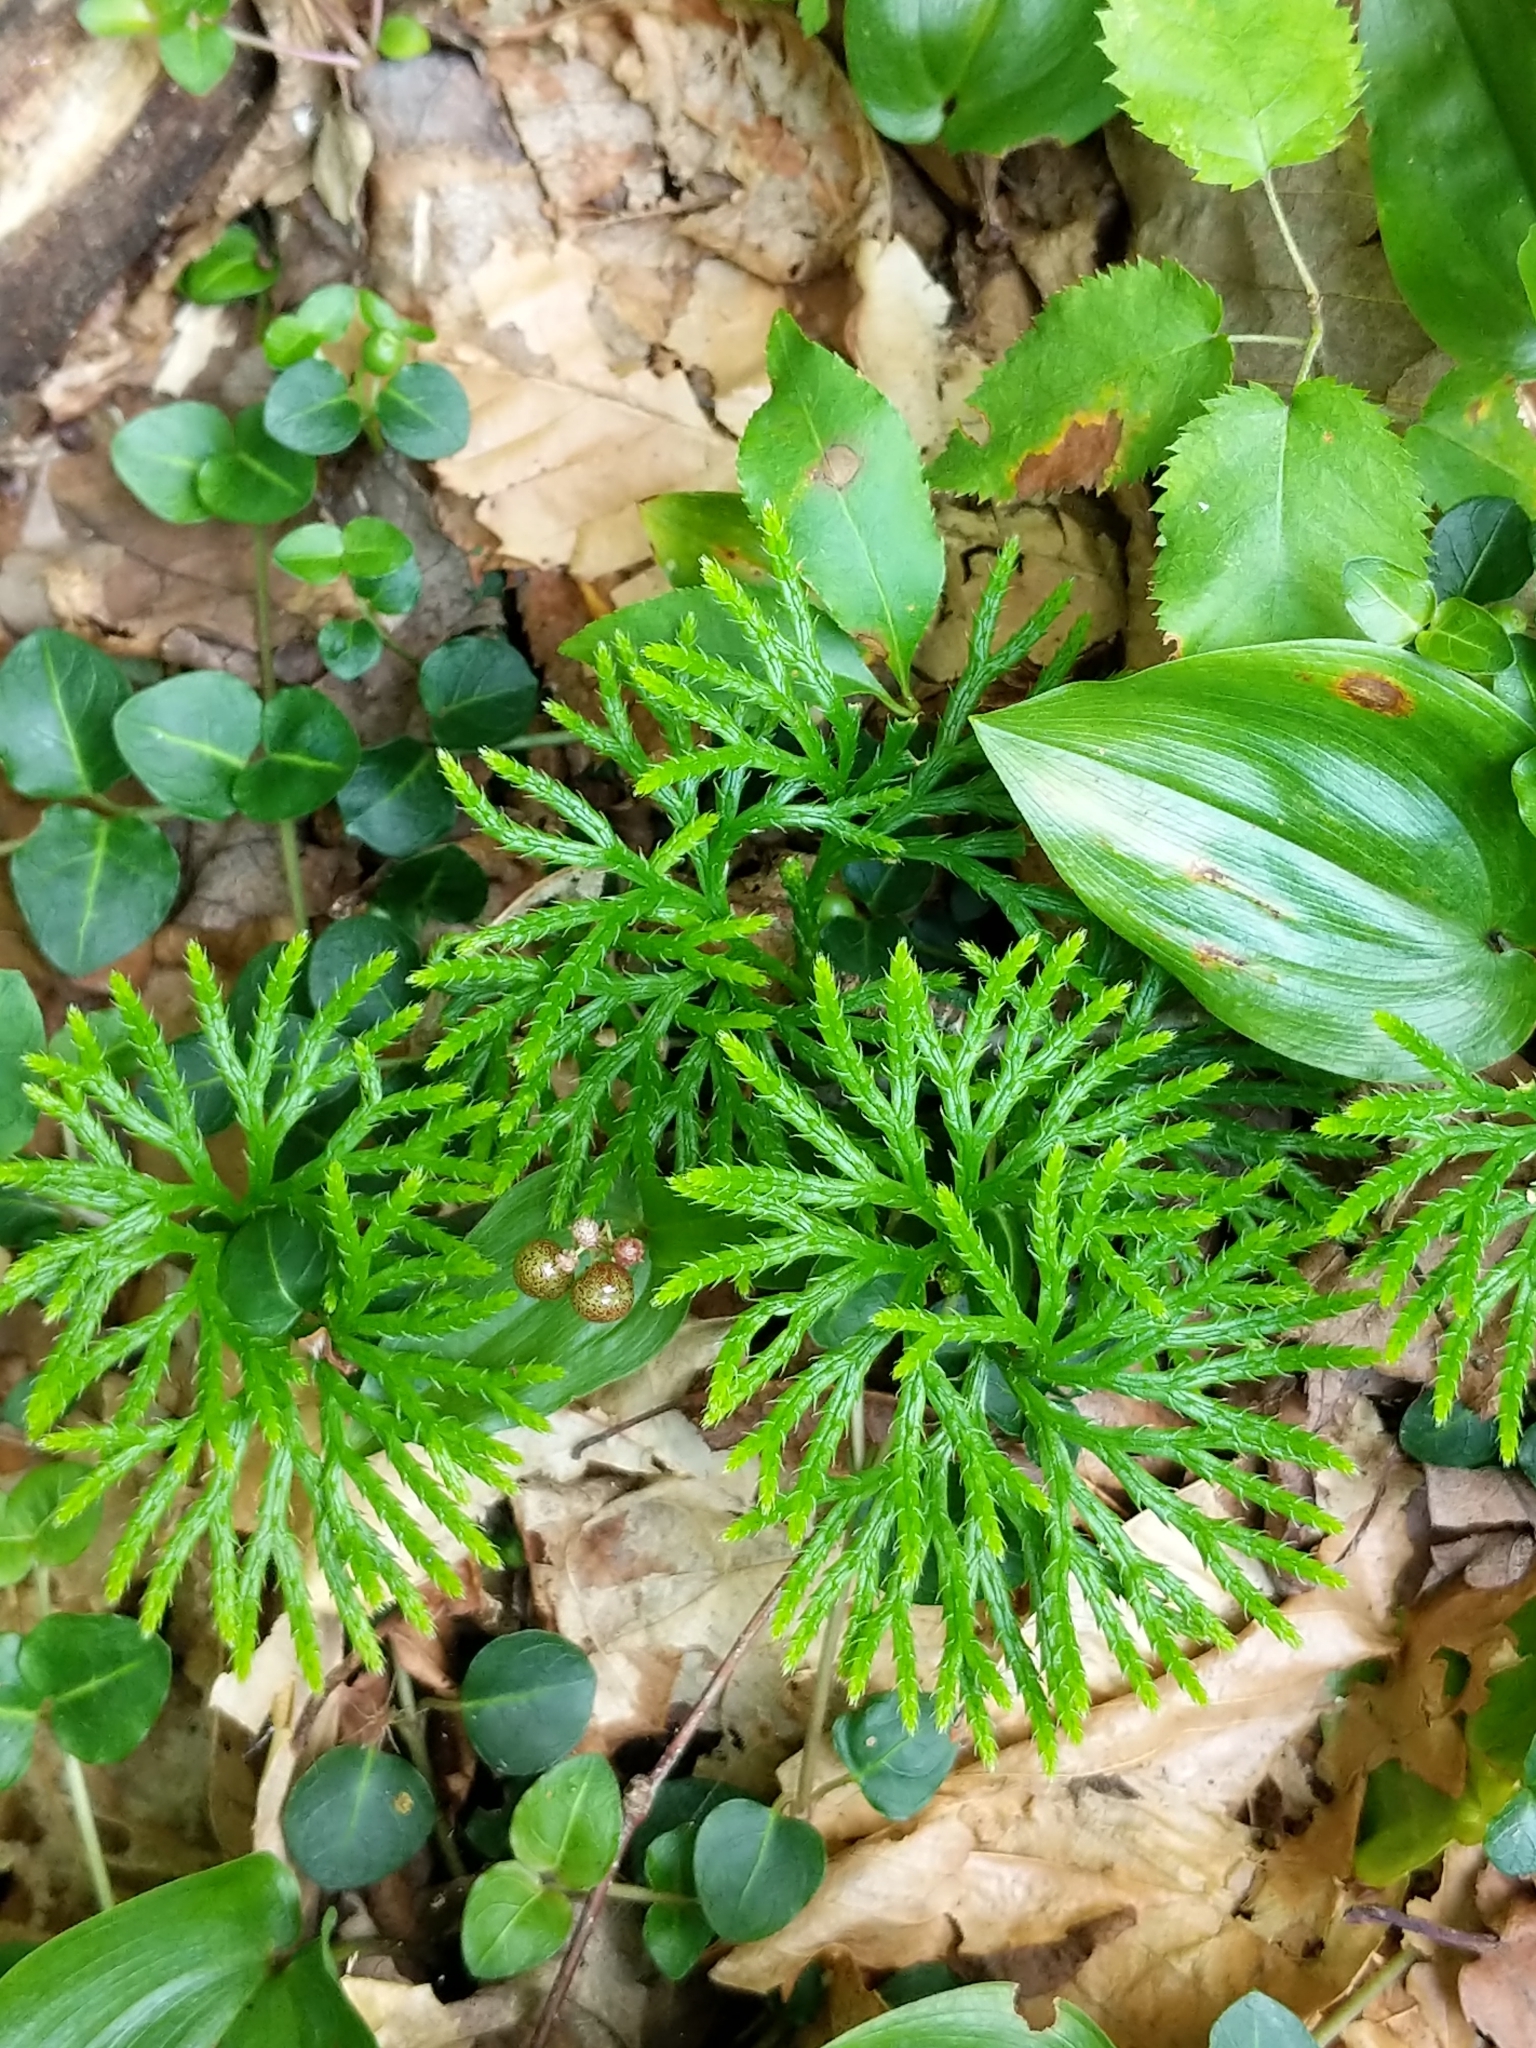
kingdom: Plantae
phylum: Tracheophyta
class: Lycopodiopsida
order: Lycopodiales
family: Lycopodiaceae
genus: Diphasiastrum
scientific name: Diphasiastrum digitatum
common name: Southern running-pine
